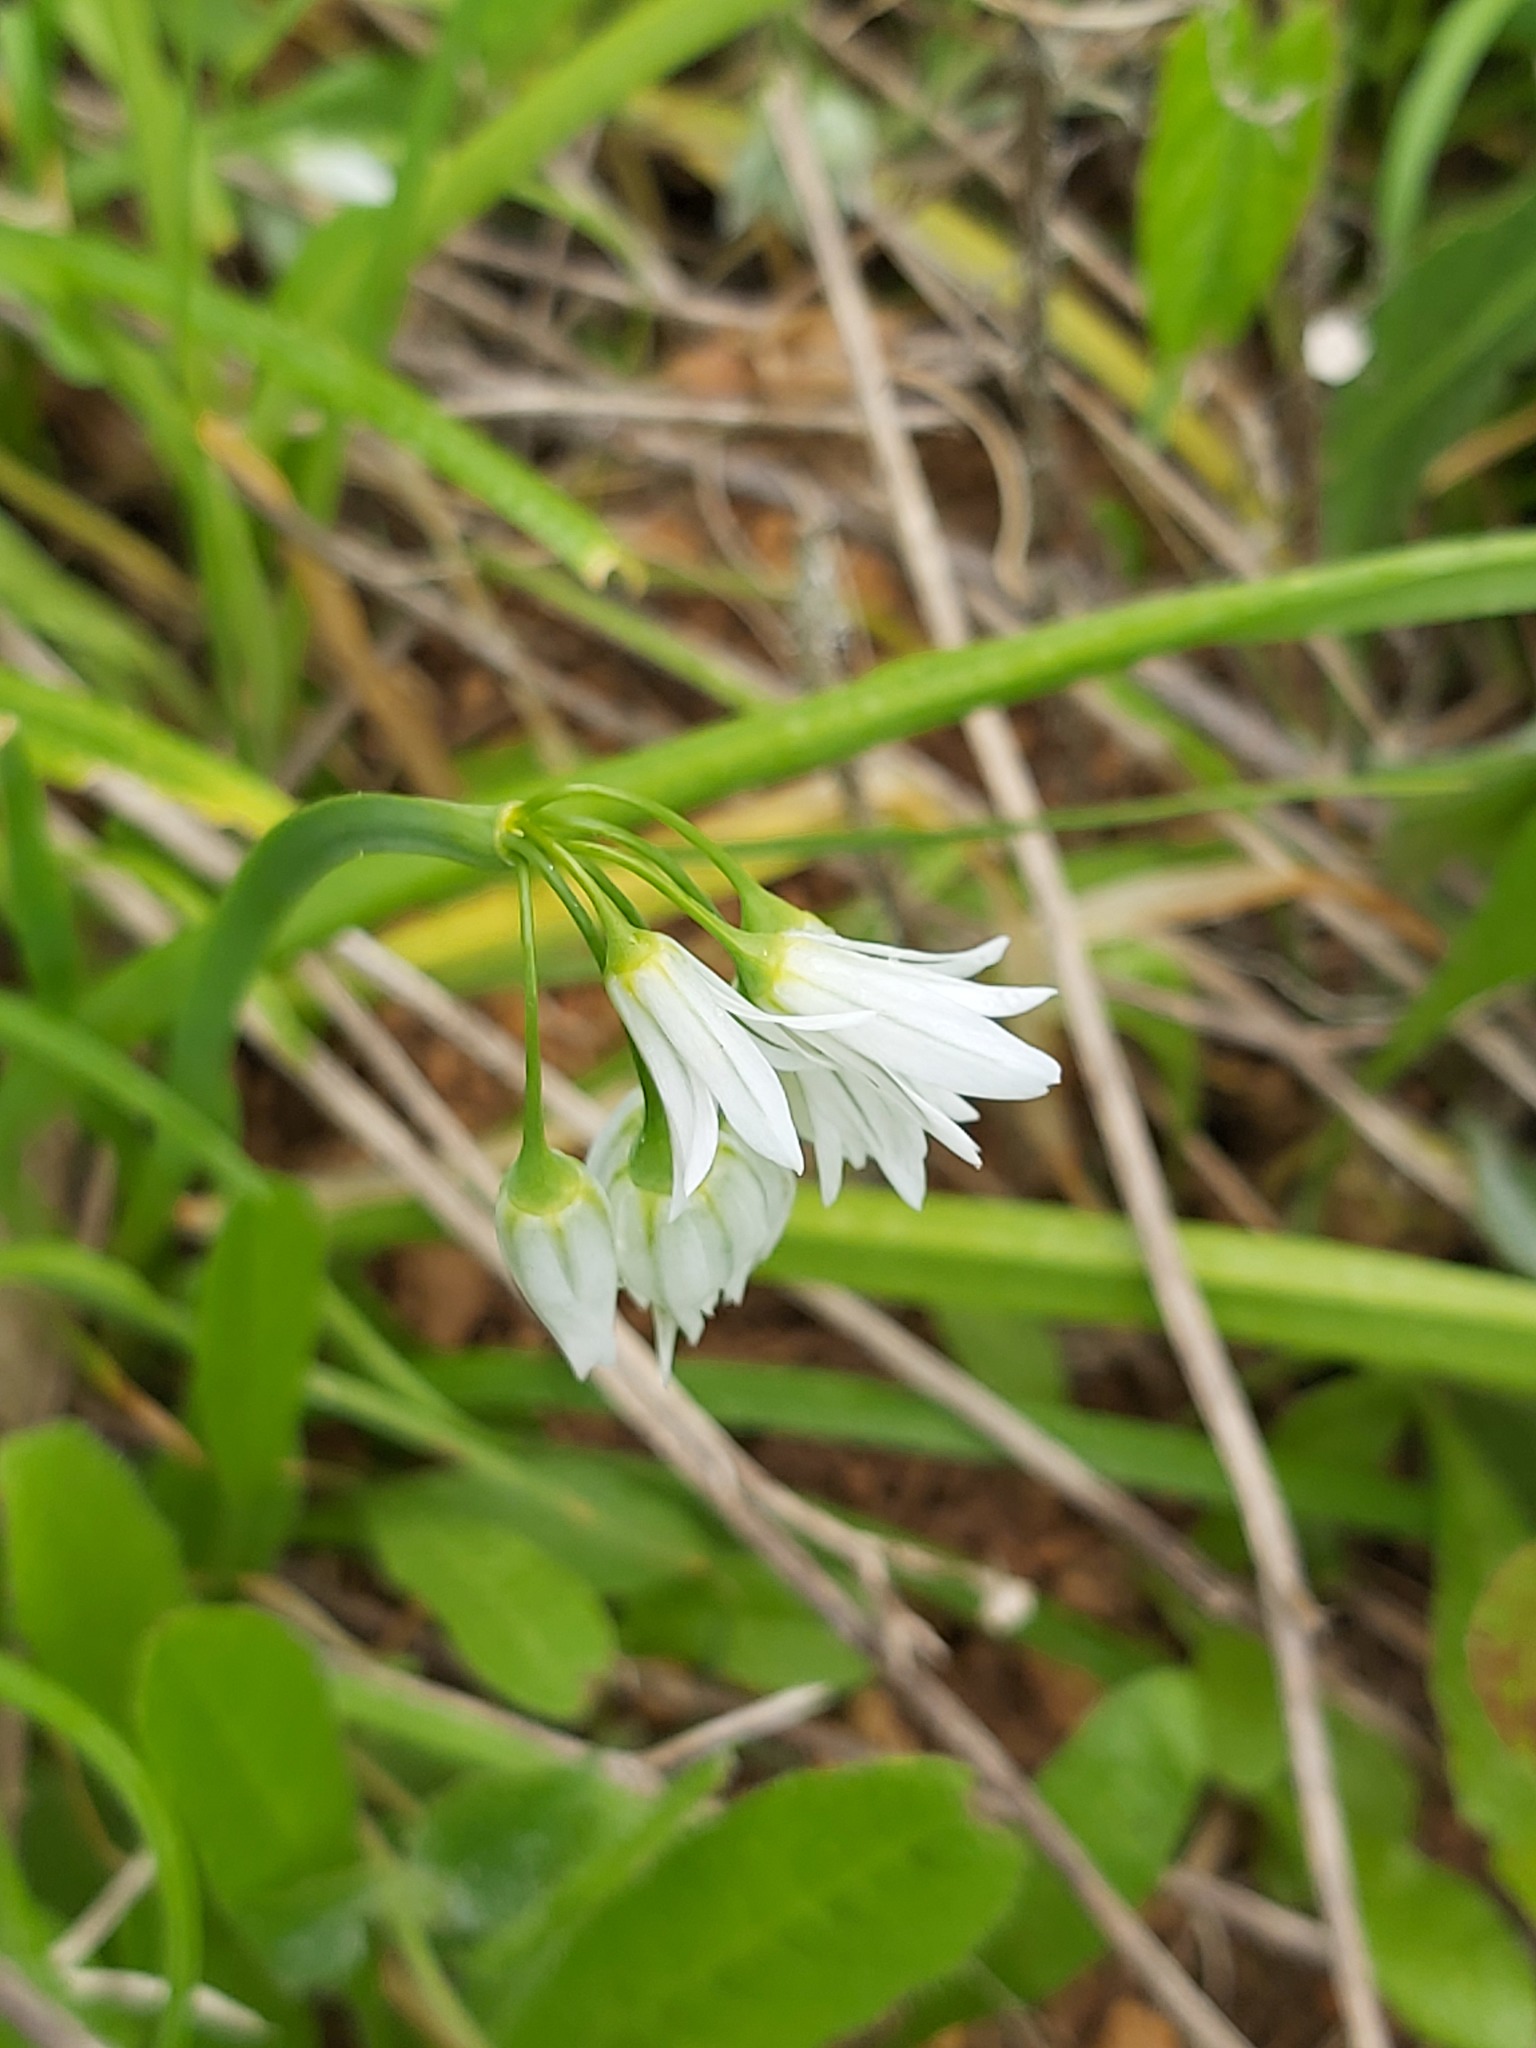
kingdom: Plantae
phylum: Tracheophyta
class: Liliopsida
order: Asparagales
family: Amaryllidaceae
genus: Allium
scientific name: Allium triquetrum
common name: Three-cornered garlic
